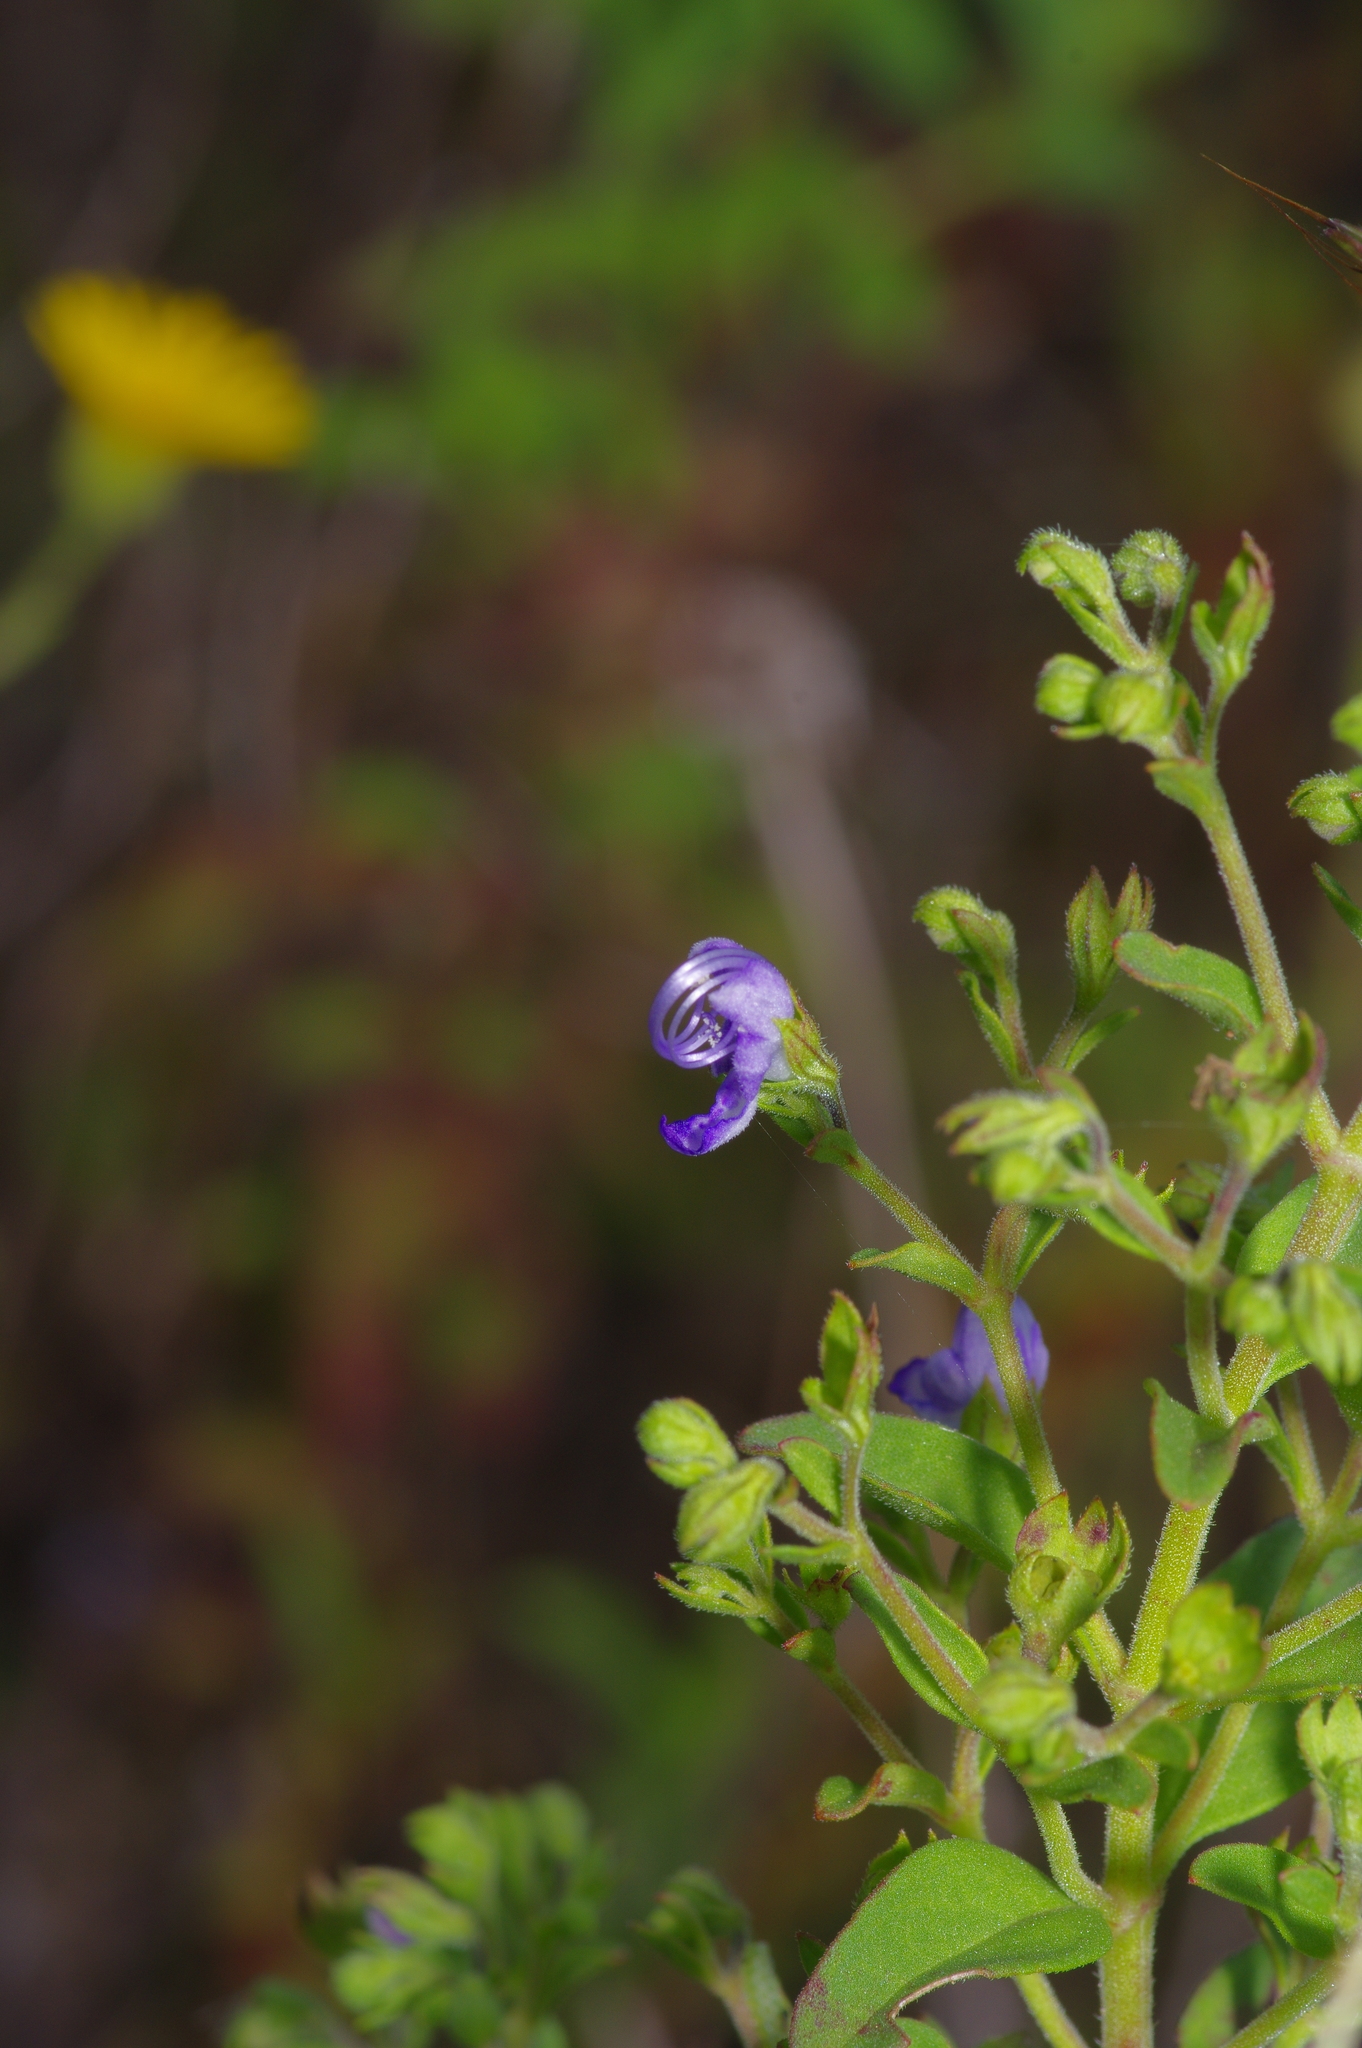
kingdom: Plantae
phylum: Tracheophyta
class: Magnoliopsida
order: Lamiales
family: Lamiaceae
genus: Trichostema
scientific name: Trichostema dichotomum
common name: Bastard pennyroyal
